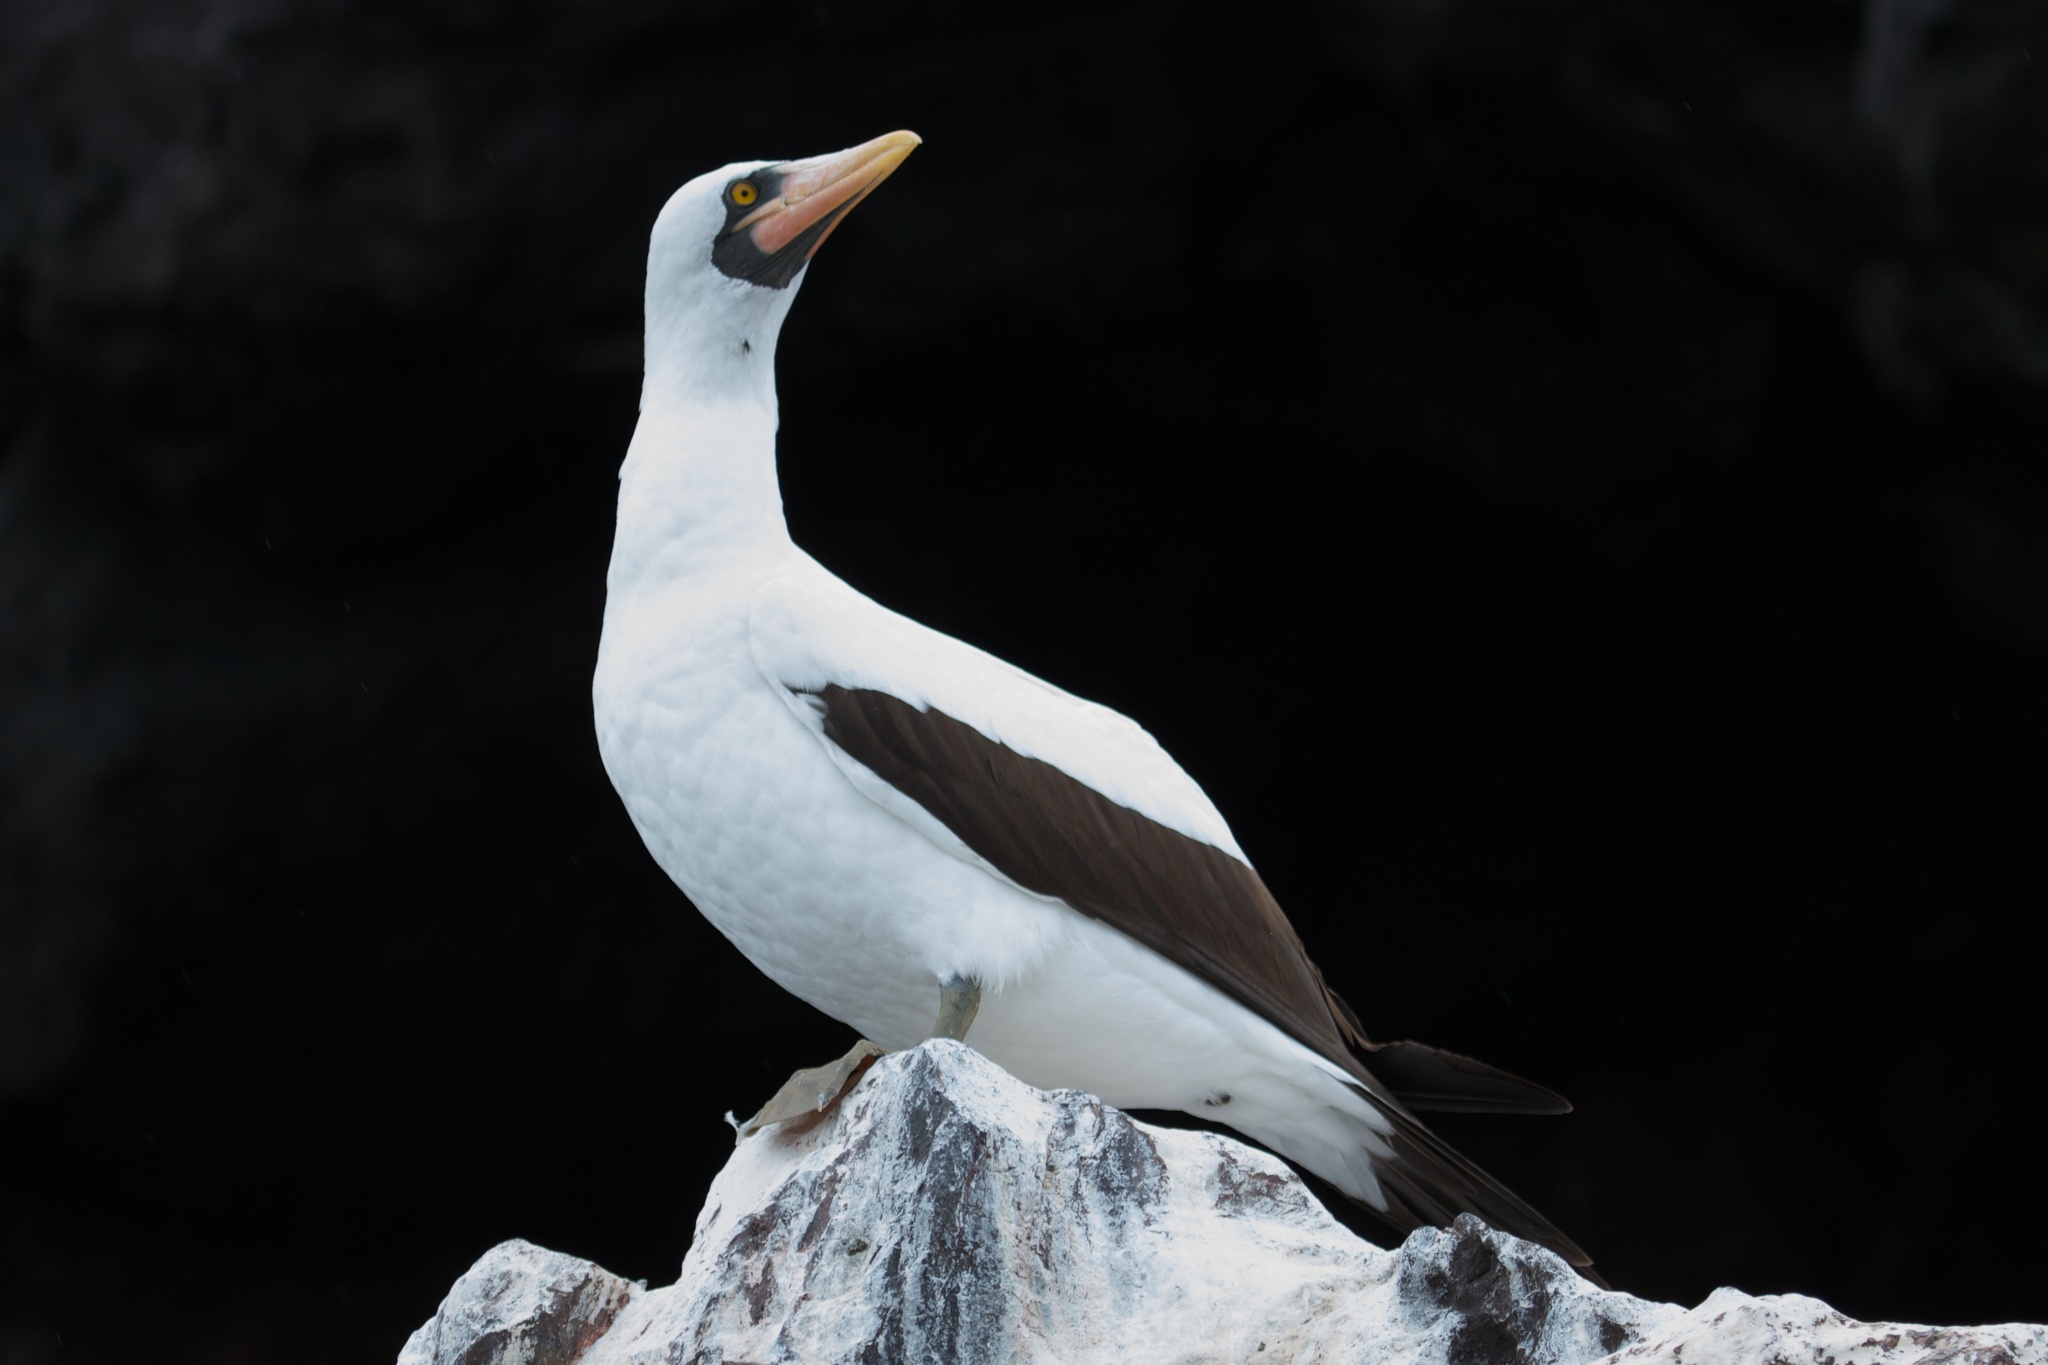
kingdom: Animalia
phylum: Chordata
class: Aves
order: Suliformes
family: Sulidae
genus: Sula
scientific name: Sula granti
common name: Nazca booby
